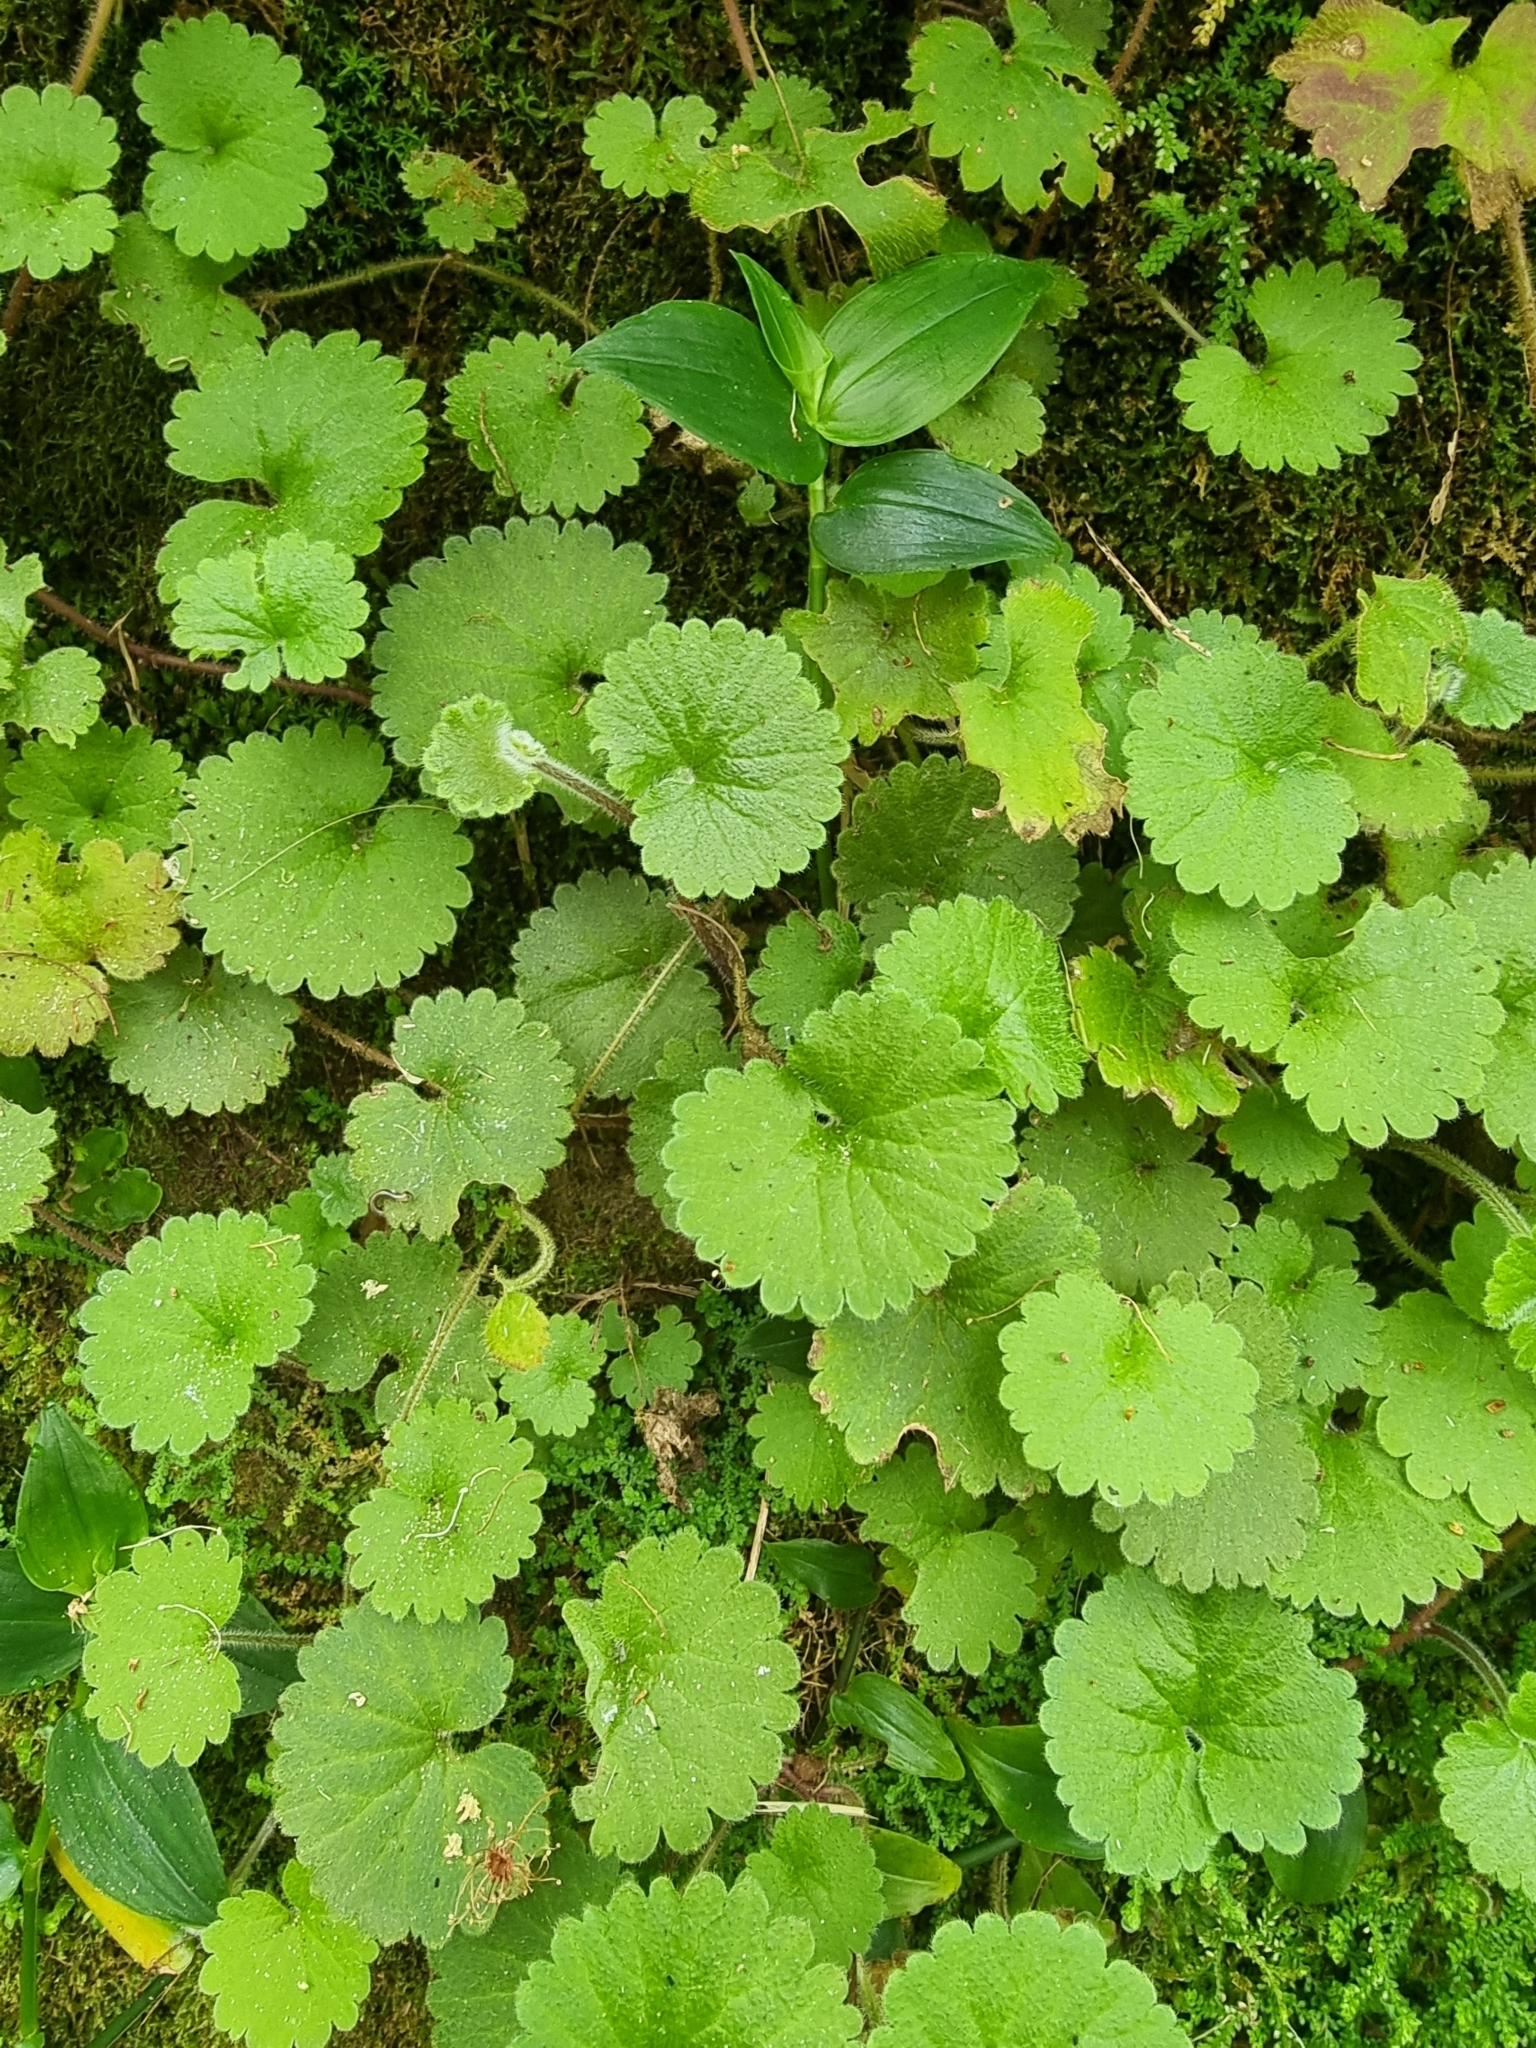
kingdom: Plantae
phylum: Tracheophyta
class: Magnoliopsida
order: Lamiales
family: Plantaginaceae
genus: Sibthorpia
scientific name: Sibthorpia peregrina
